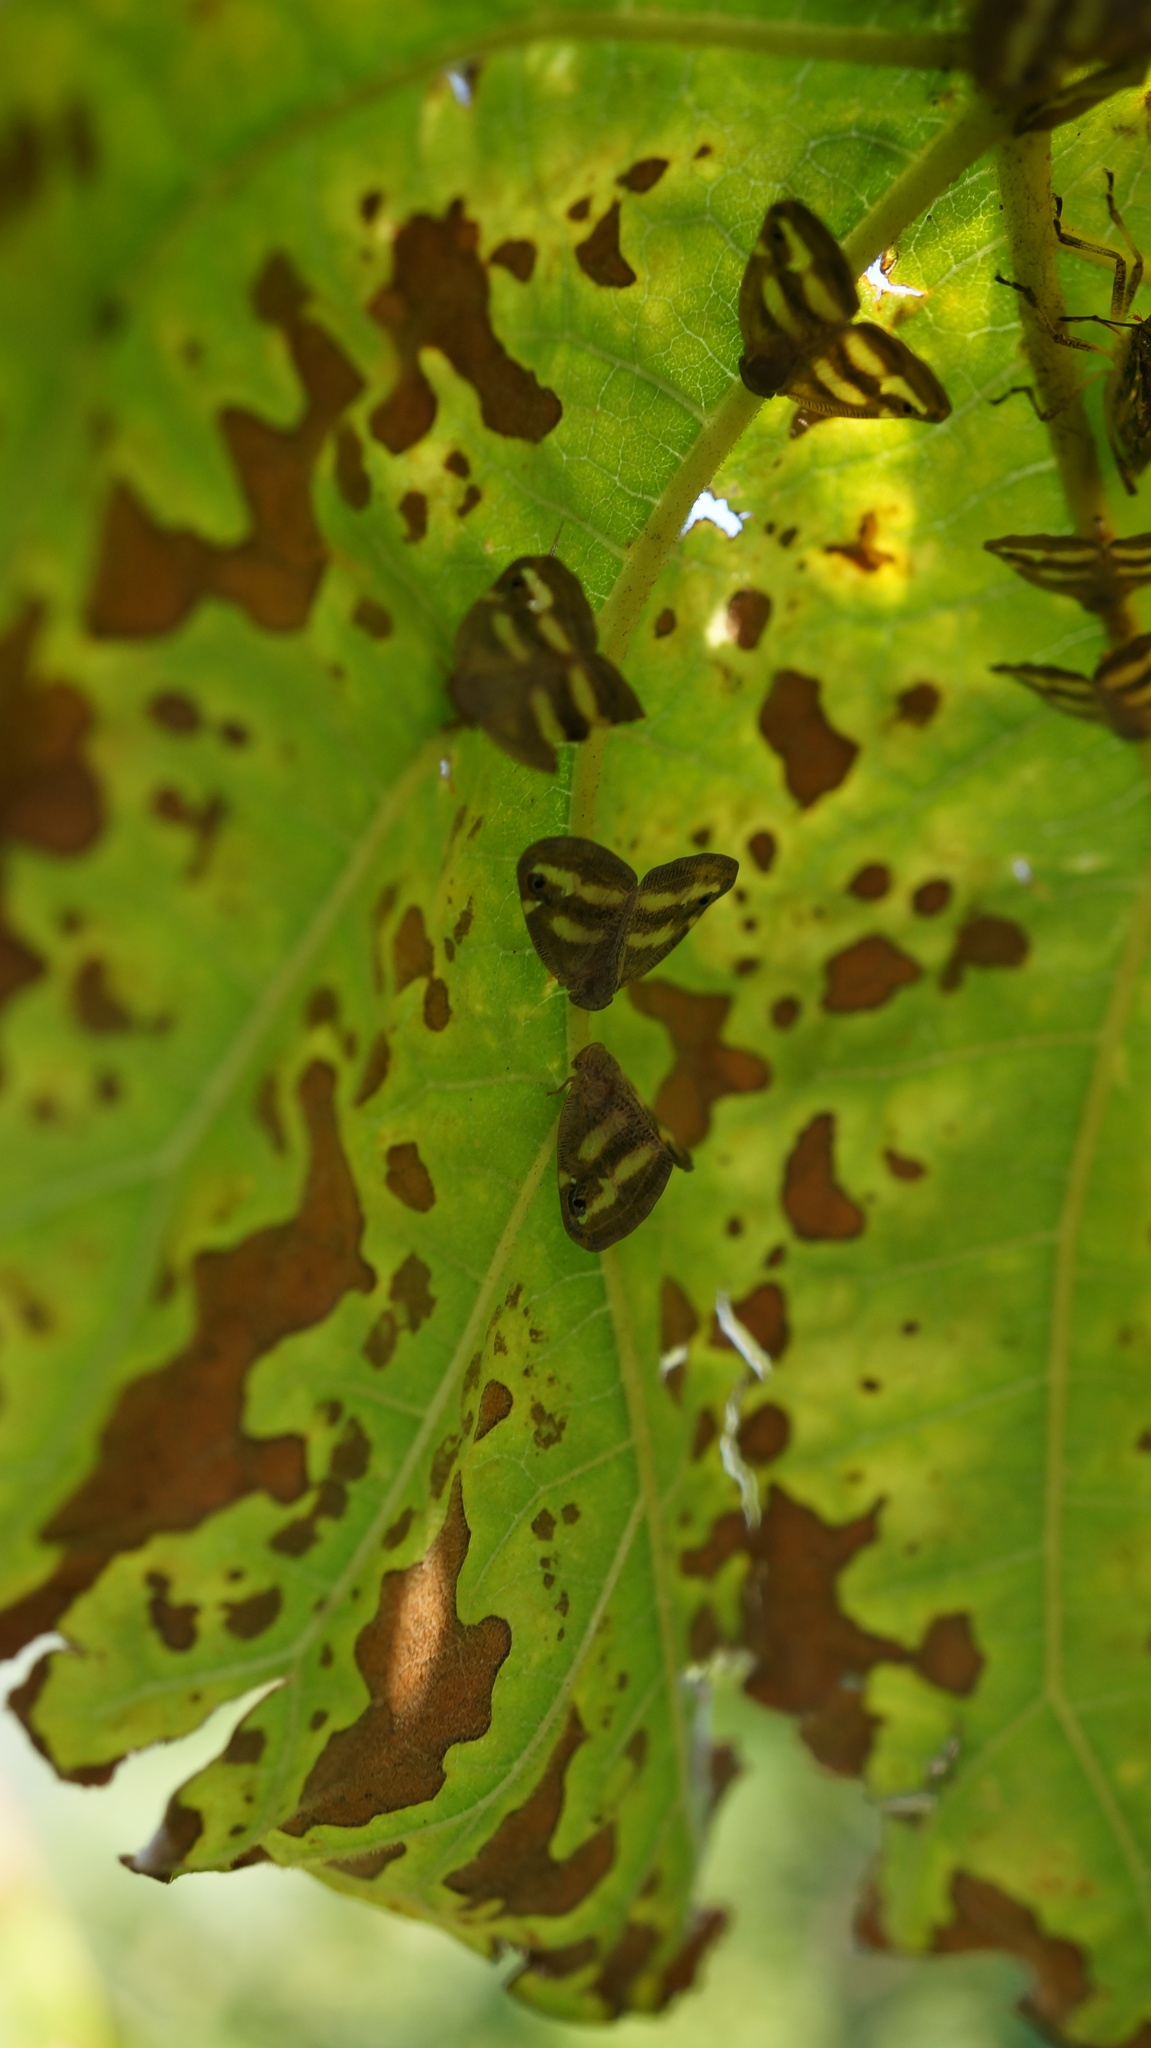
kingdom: Animalia
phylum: Arthropoda
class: Insecta
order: Hemiptera
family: Ricaniidae
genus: Orosanga
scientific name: Orosanga japonica
